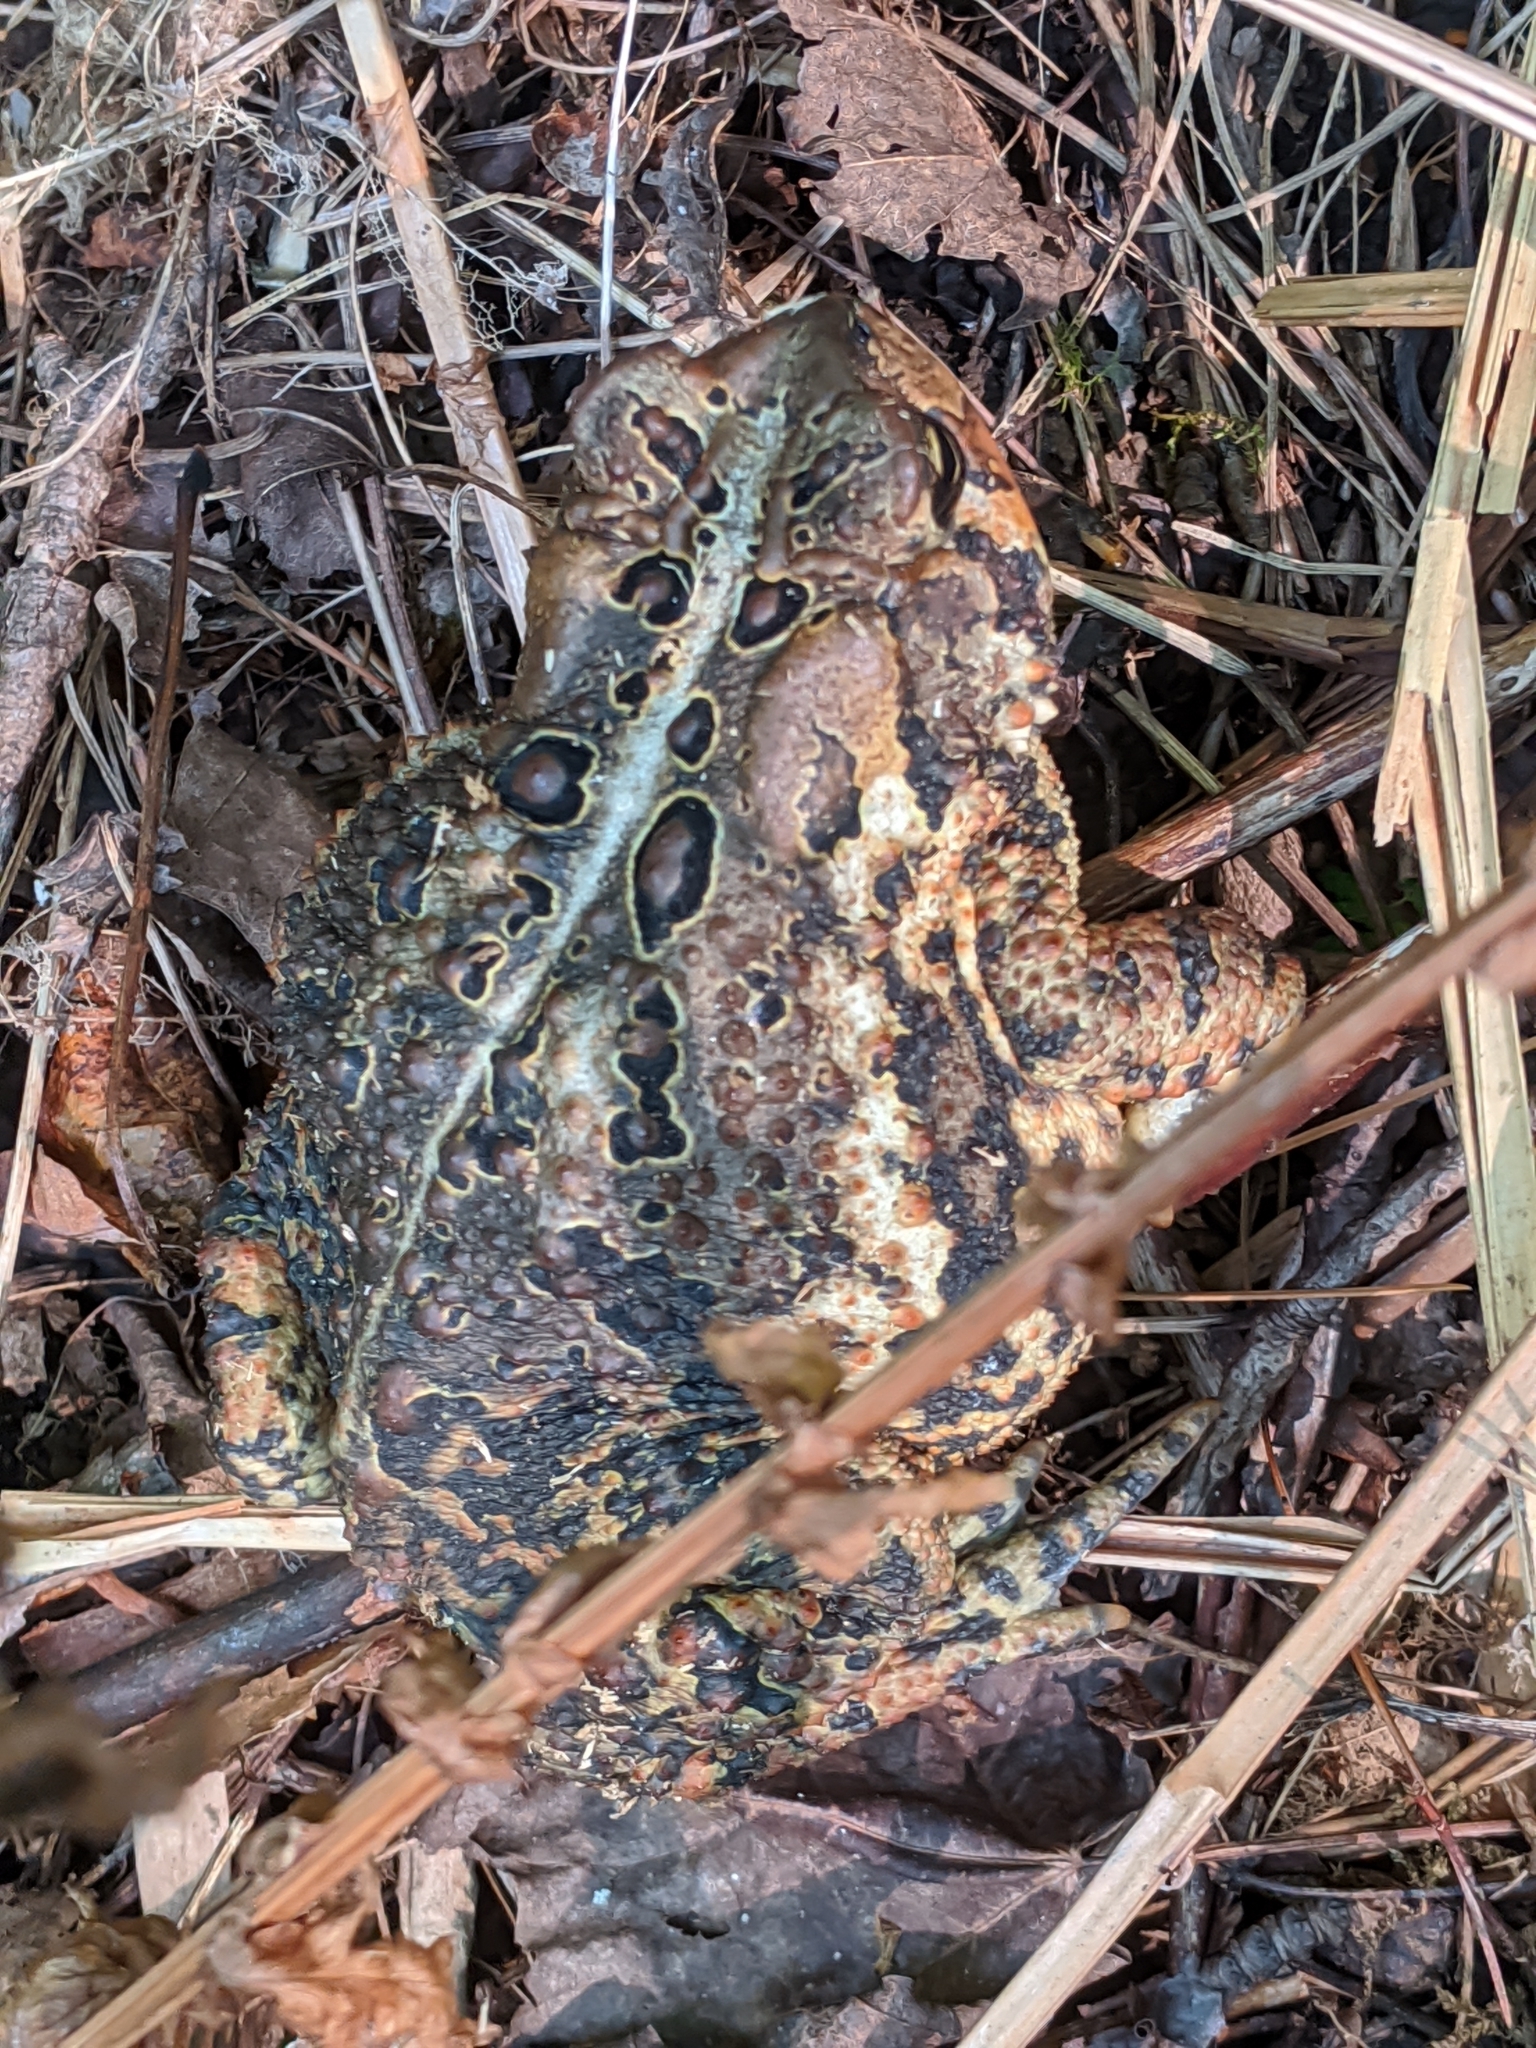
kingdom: Animalia
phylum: Chordata
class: Amphibia
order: Anura
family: Bufonidae
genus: Anaxyrus
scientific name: Anaxyrus americanus
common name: American toad
